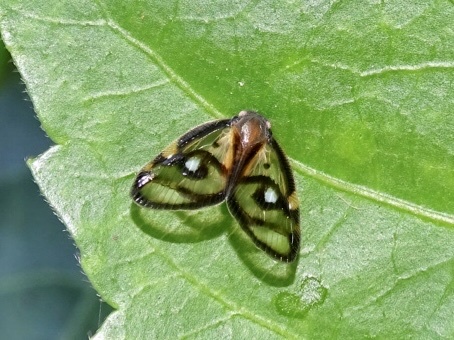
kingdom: Animalia
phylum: Arthropoda
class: Insecta
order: Hemiptera
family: Ricaniidae
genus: Euricania
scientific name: Euricania ocella
